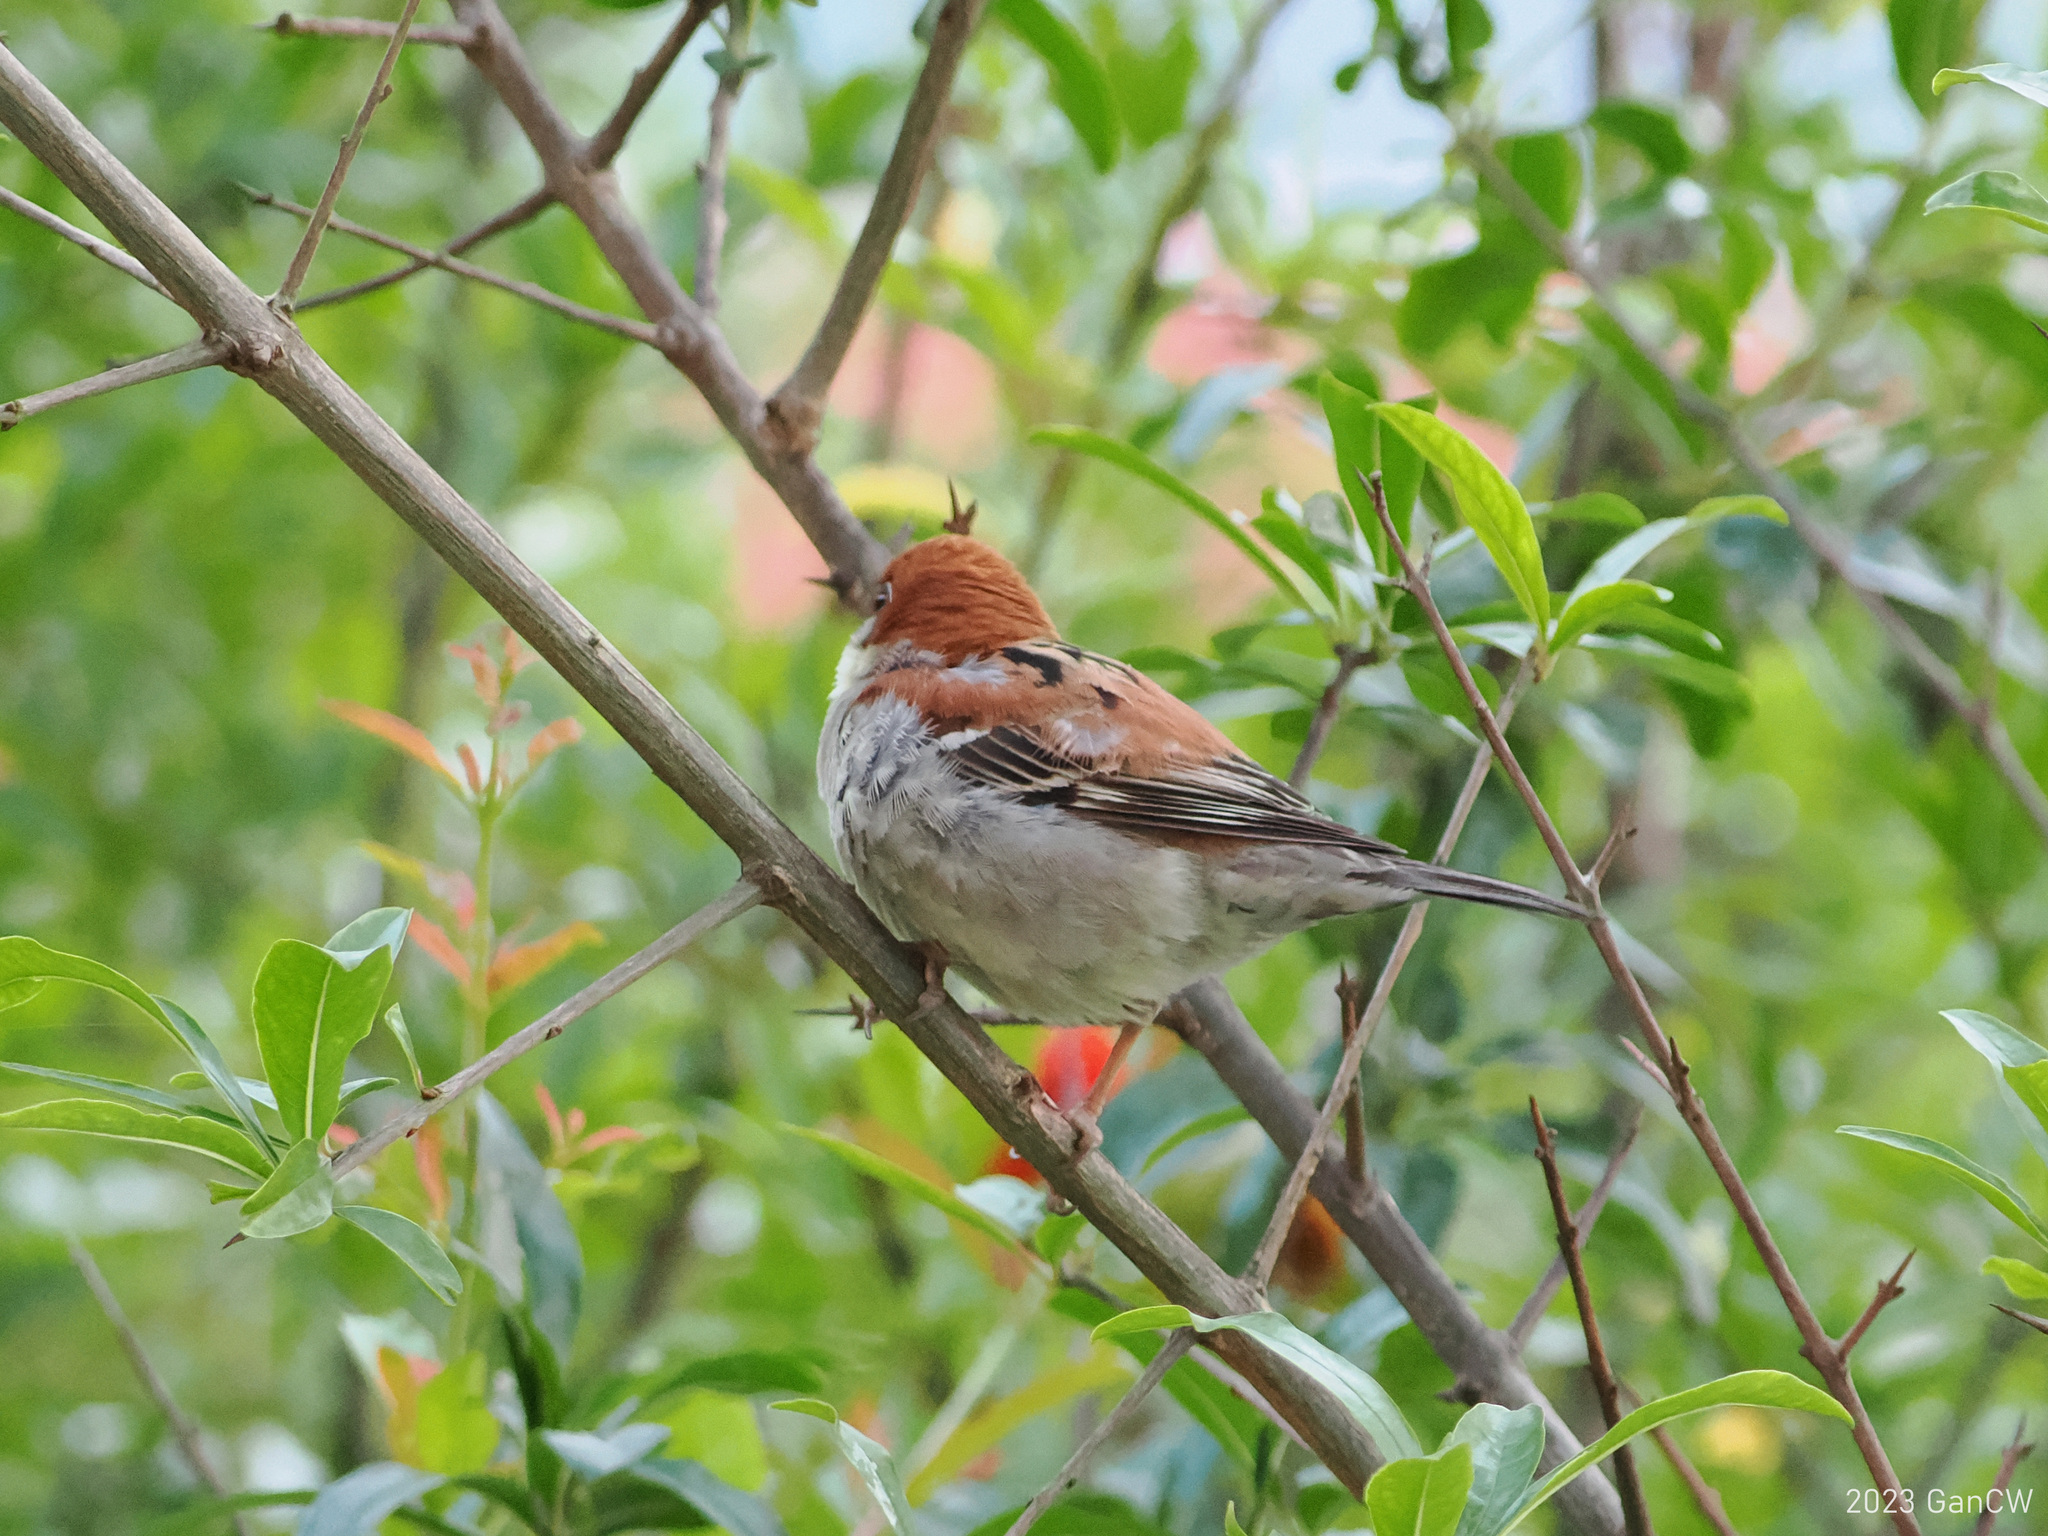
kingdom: Animalia
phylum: Chordata
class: Aves
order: Passeriformes
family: Passeridae
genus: Passer
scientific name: Passer cinnamomeus
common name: Russet sparrow
